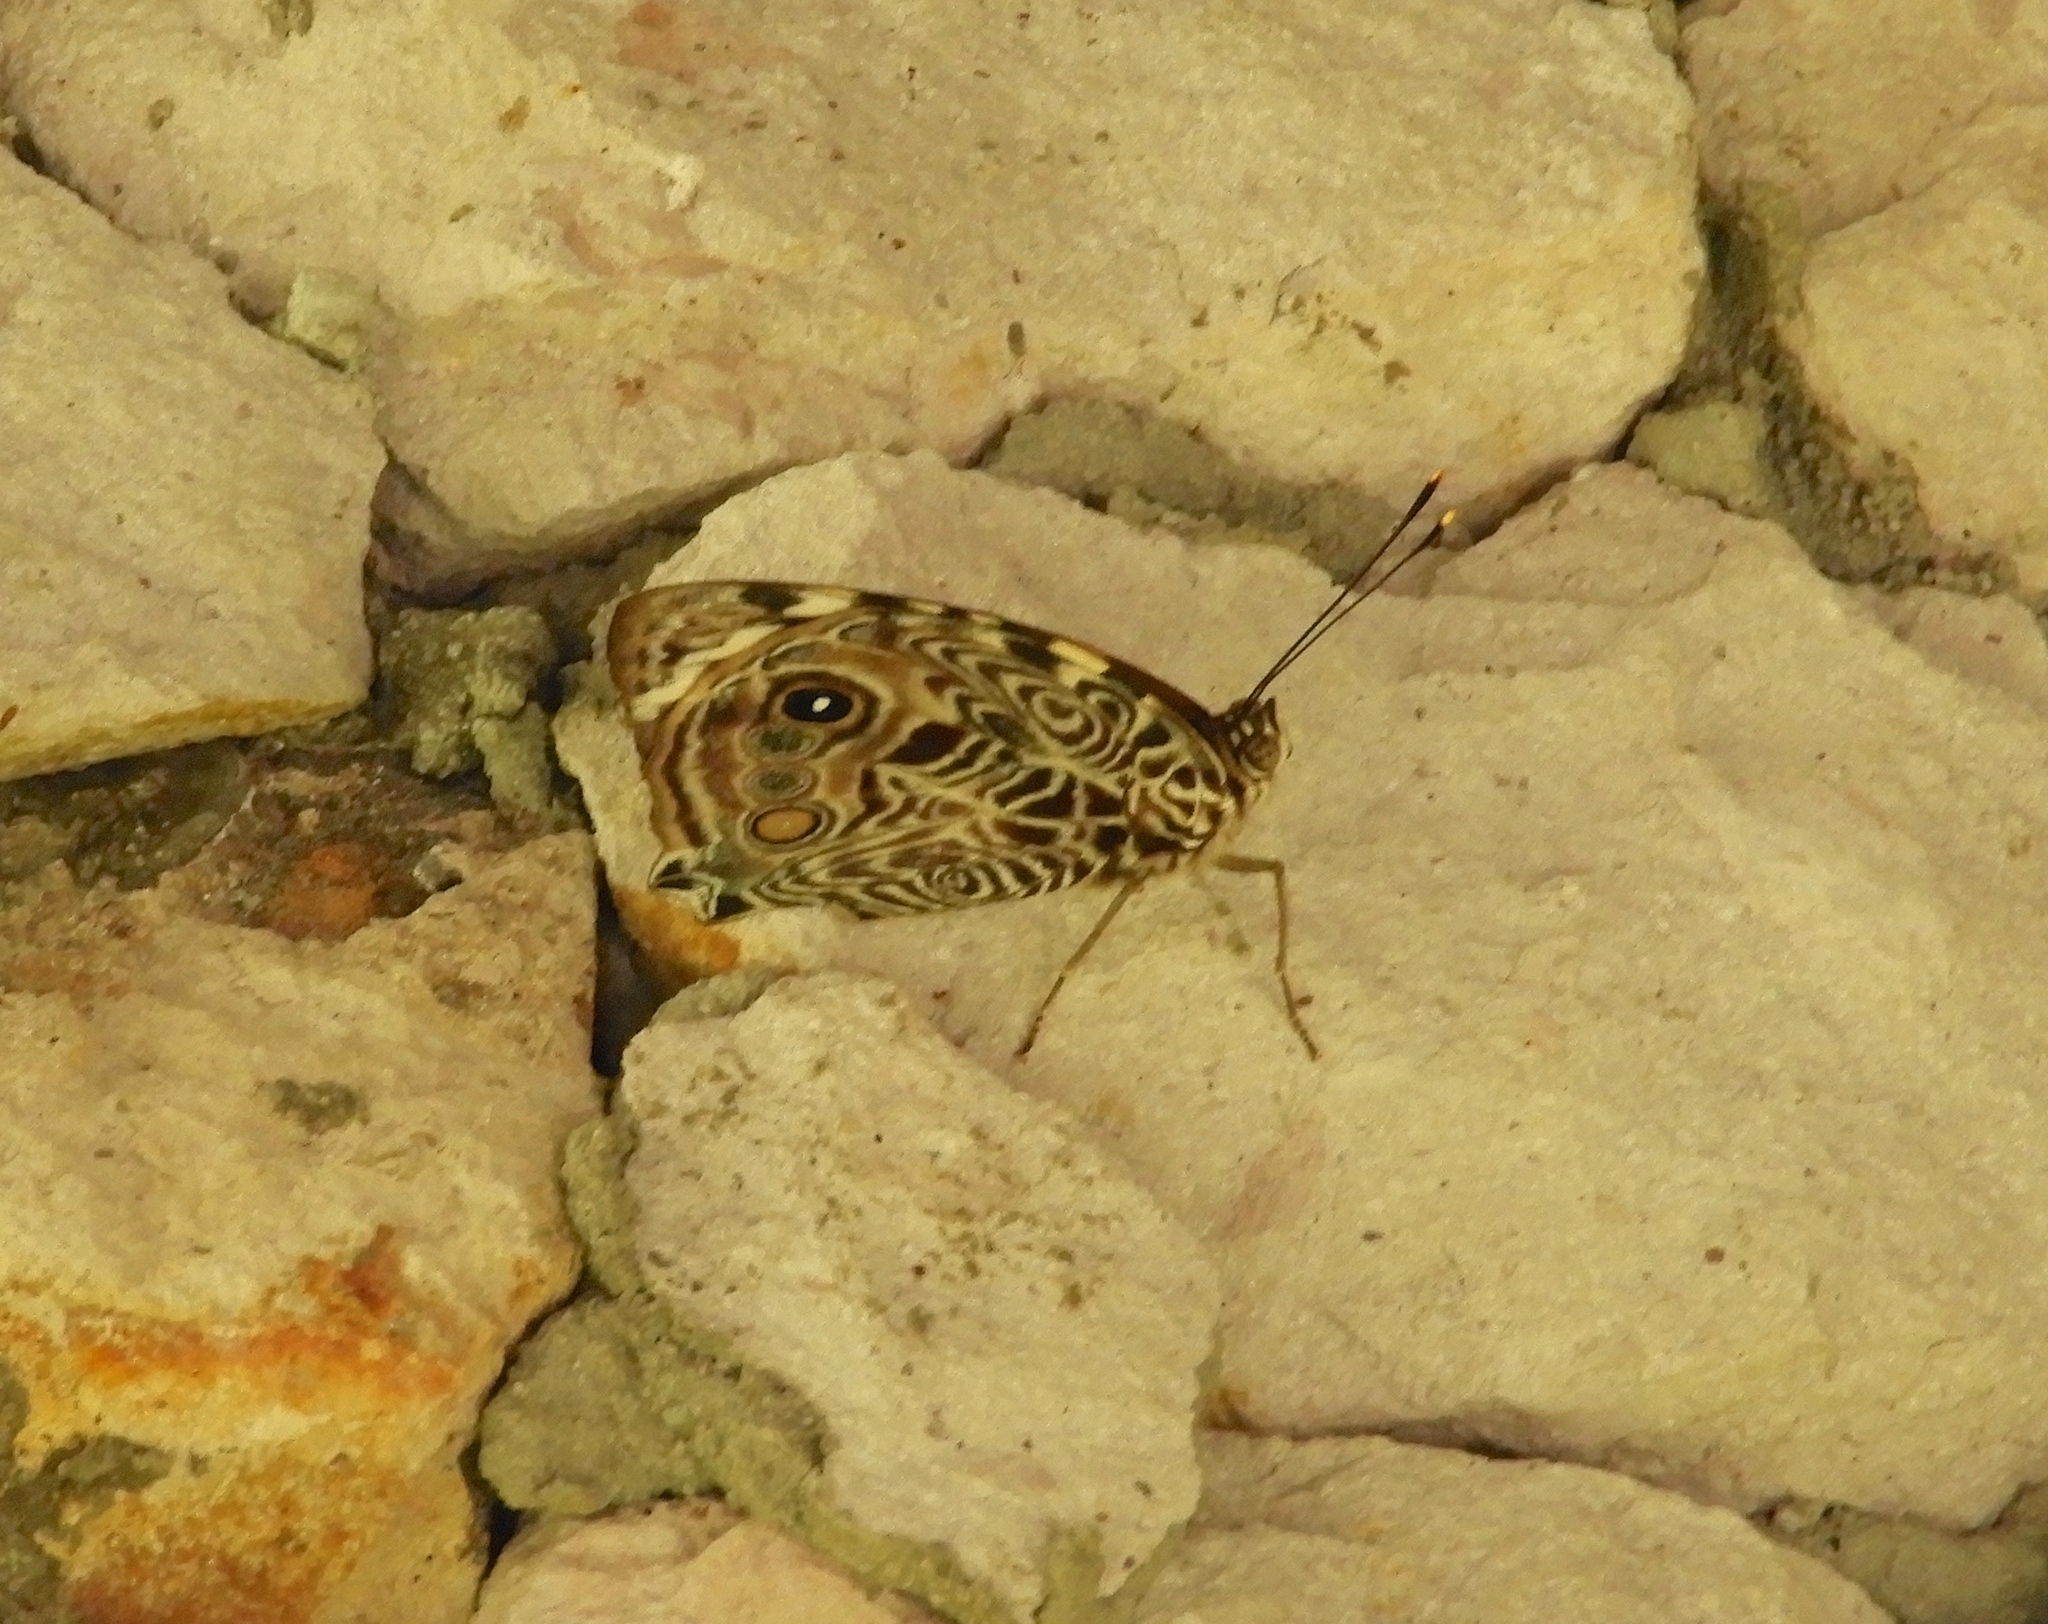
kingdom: Animalia
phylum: Arthropoda
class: Insecta
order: Lepidoptera
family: Nymphalidae
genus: Smyrna
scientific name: Smyrna blomfildia
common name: Blomfild's beauty
